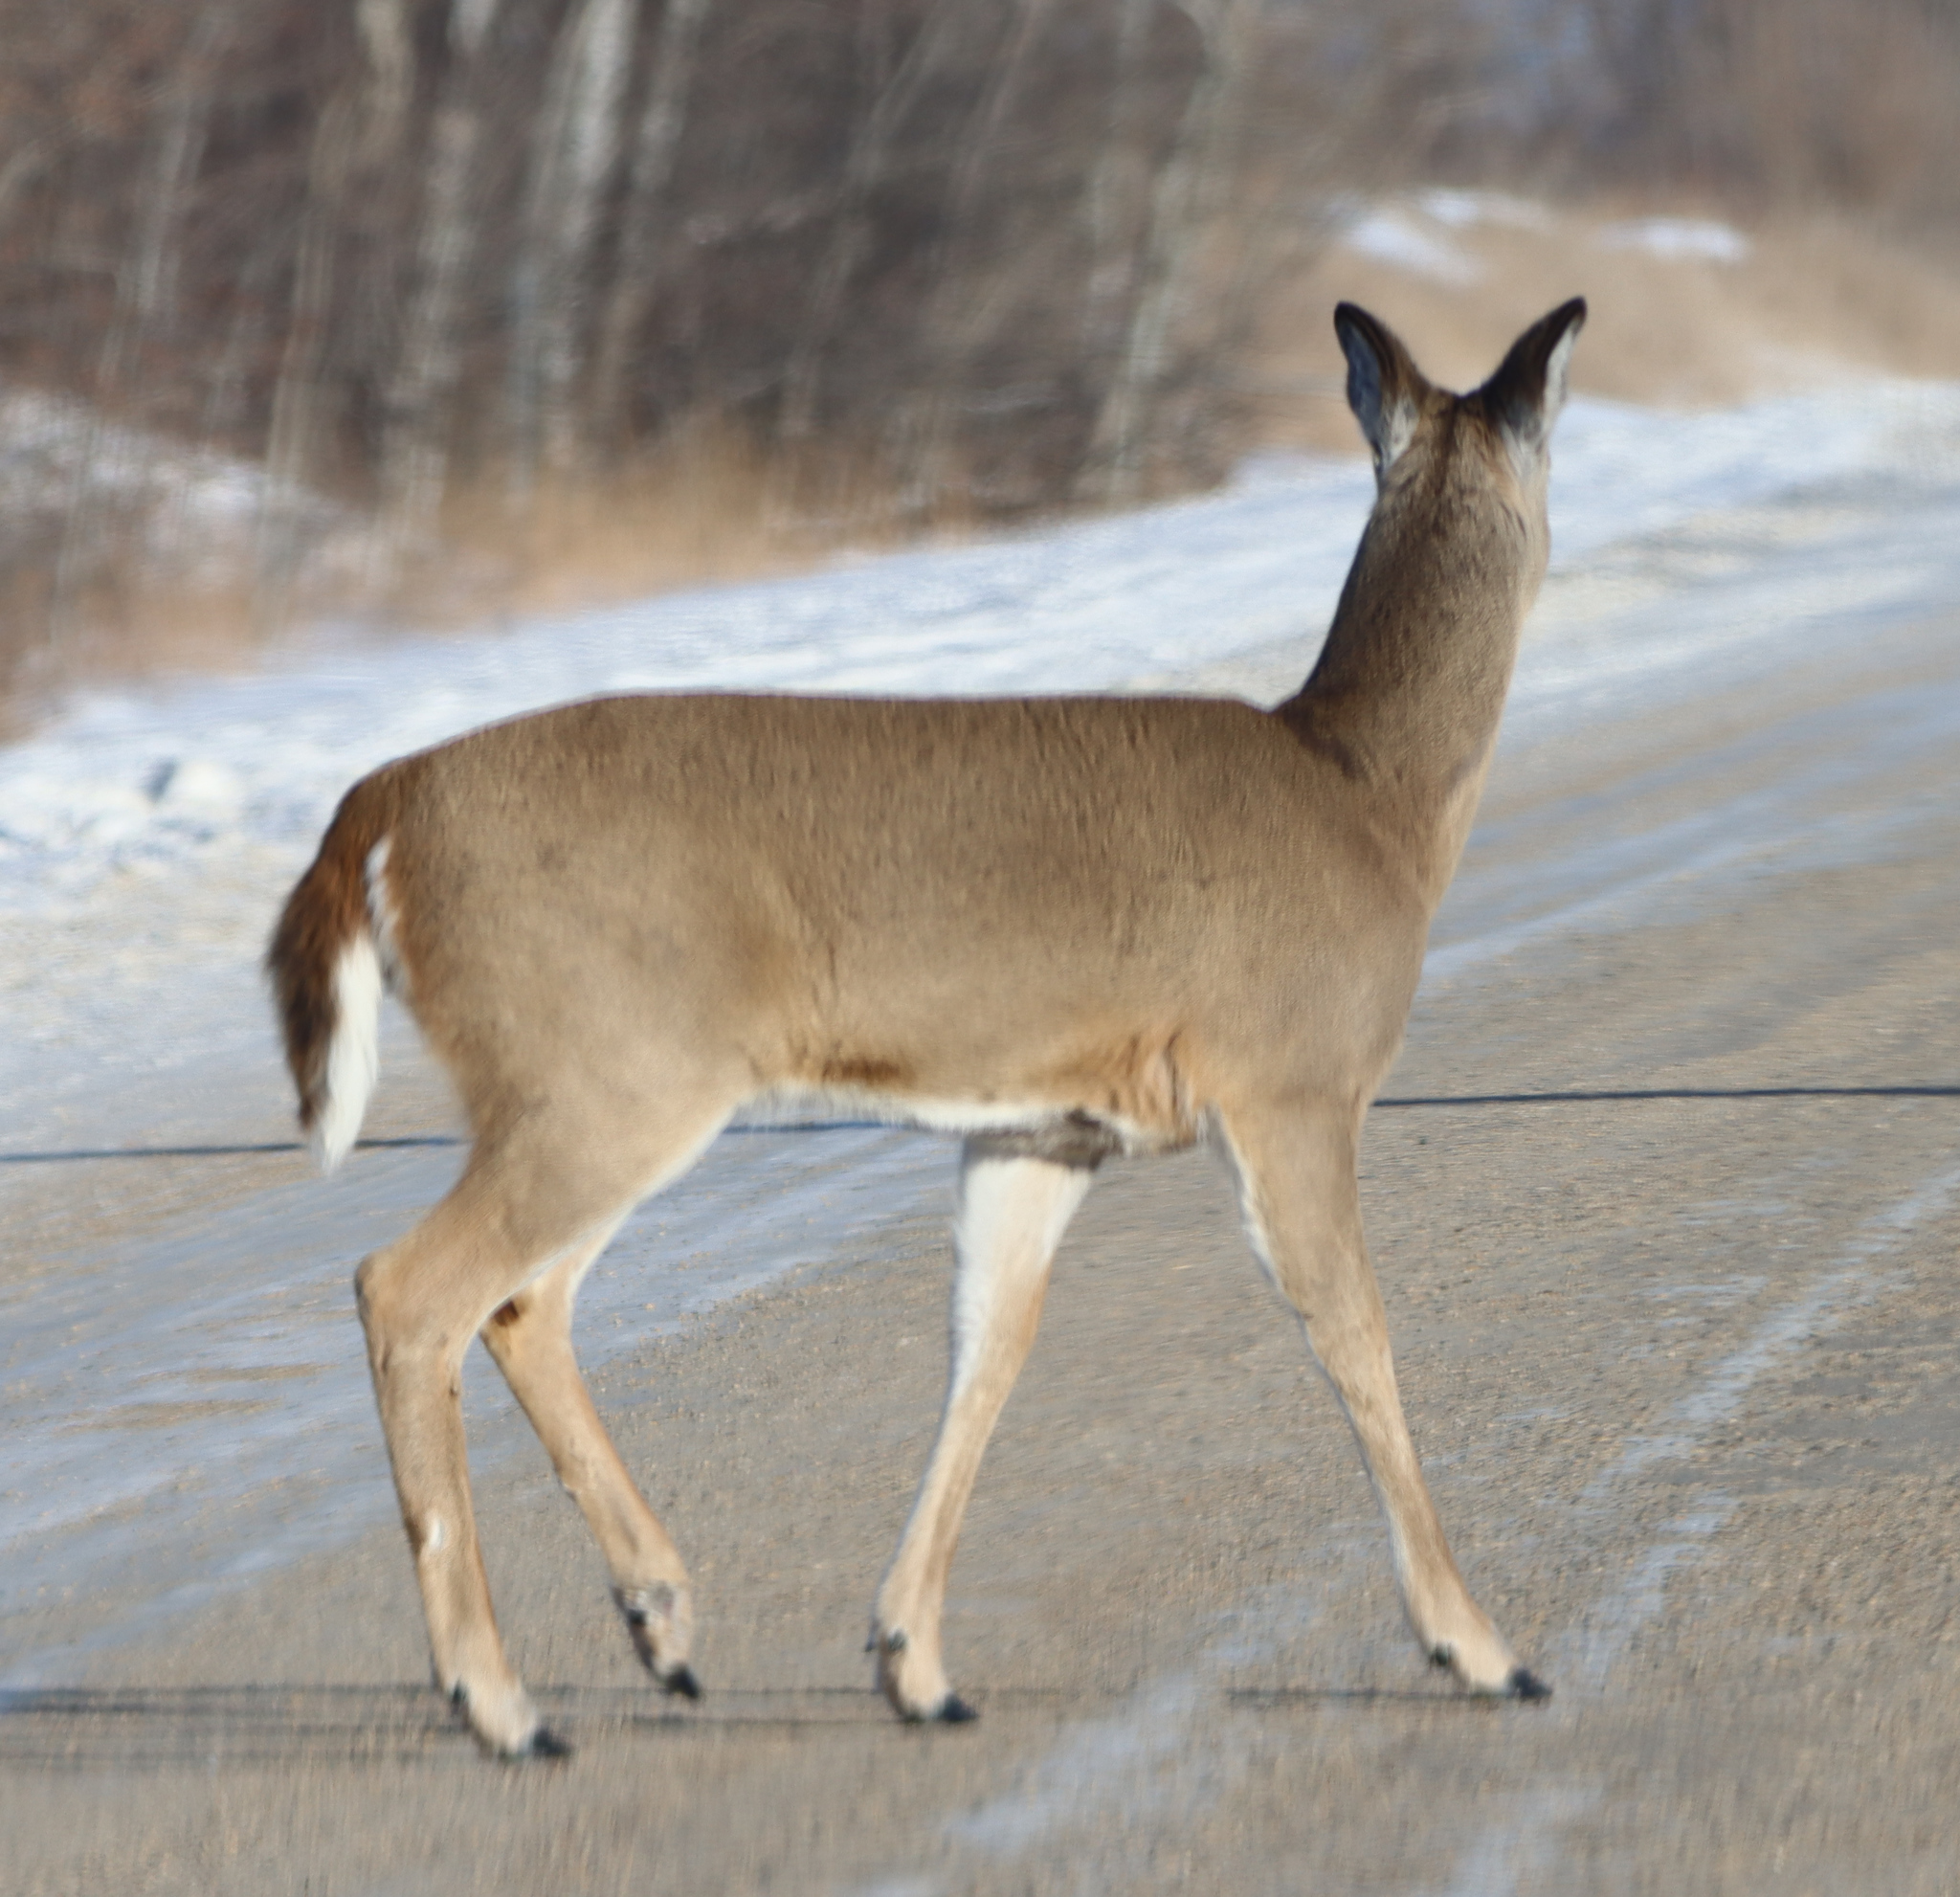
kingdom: Animalia
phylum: Chordata
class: Mammalia
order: Artiodactyla
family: Cervidae
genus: Odocoileus
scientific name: Odocoileus virginianus
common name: White-tailed deer
